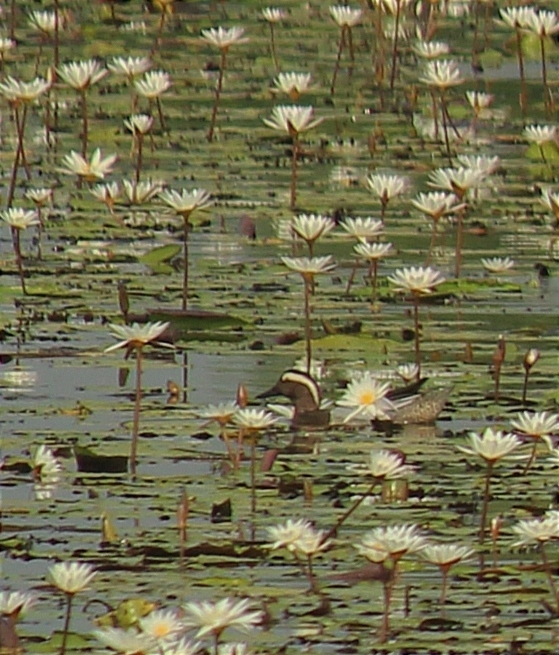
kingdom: Animalia
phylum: Chordata
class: Aves
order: Anseriformes
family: Anatidae
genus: Spatula
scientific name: Spatula querquedula
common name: Garganey
